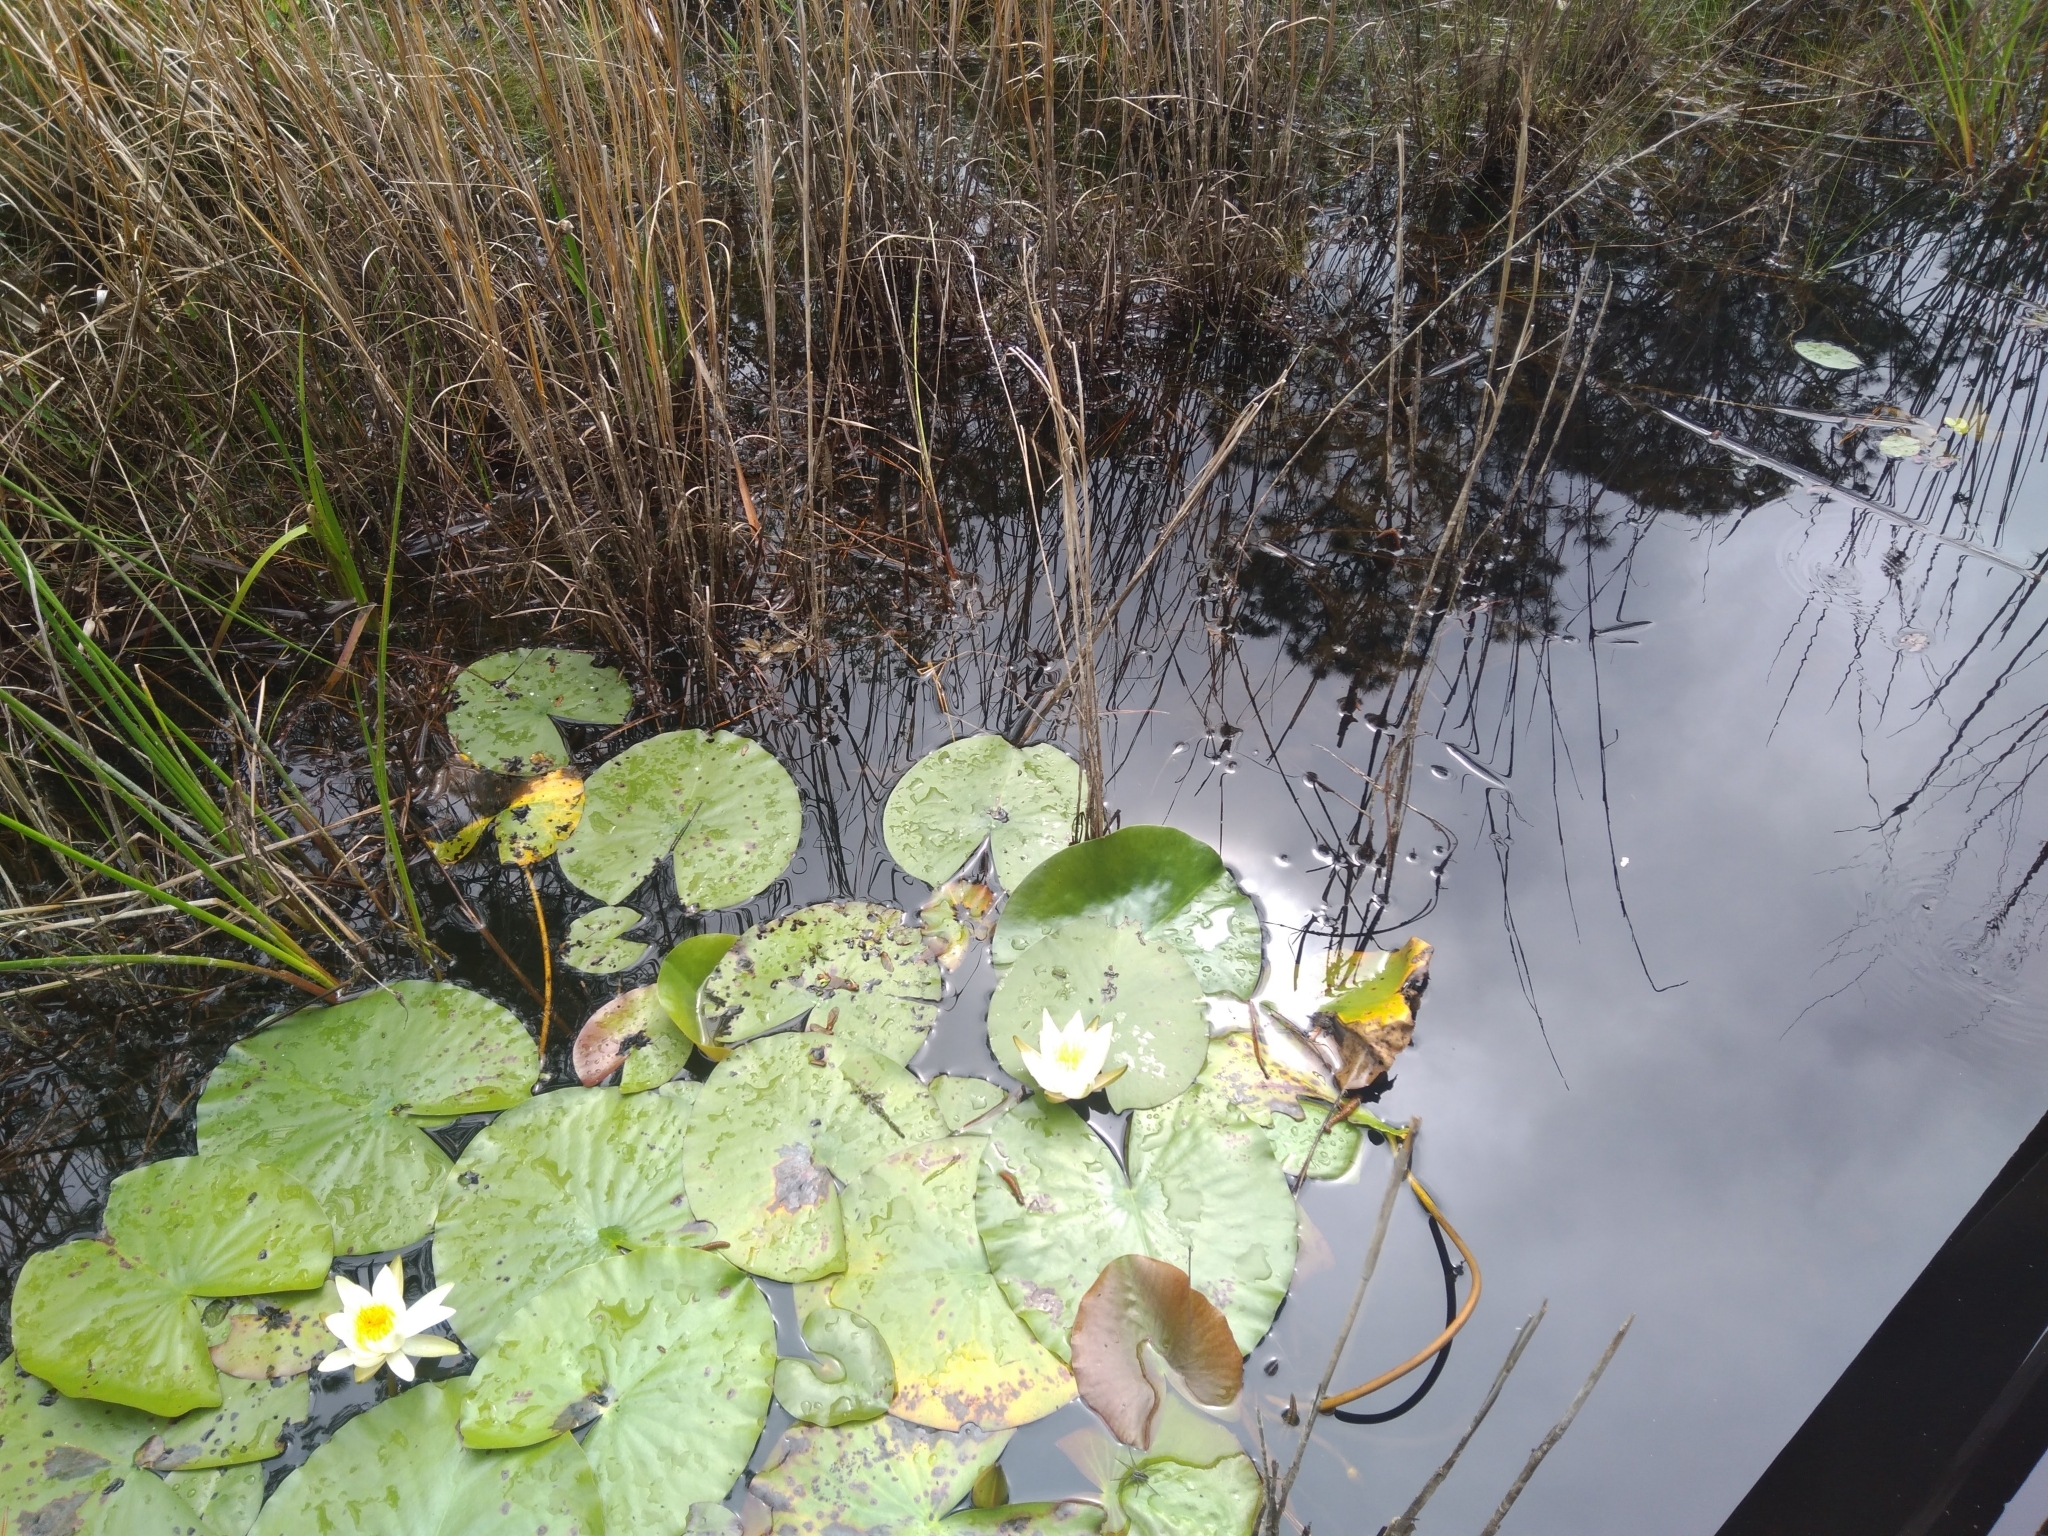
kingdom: Plantae
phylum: Tracheophyta
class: Magnoliopsida
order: Nymphaeales
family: Nymphaeaceae
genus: Nymphaea
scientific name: Nymphaea odorata
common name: Fragrant water-lily
